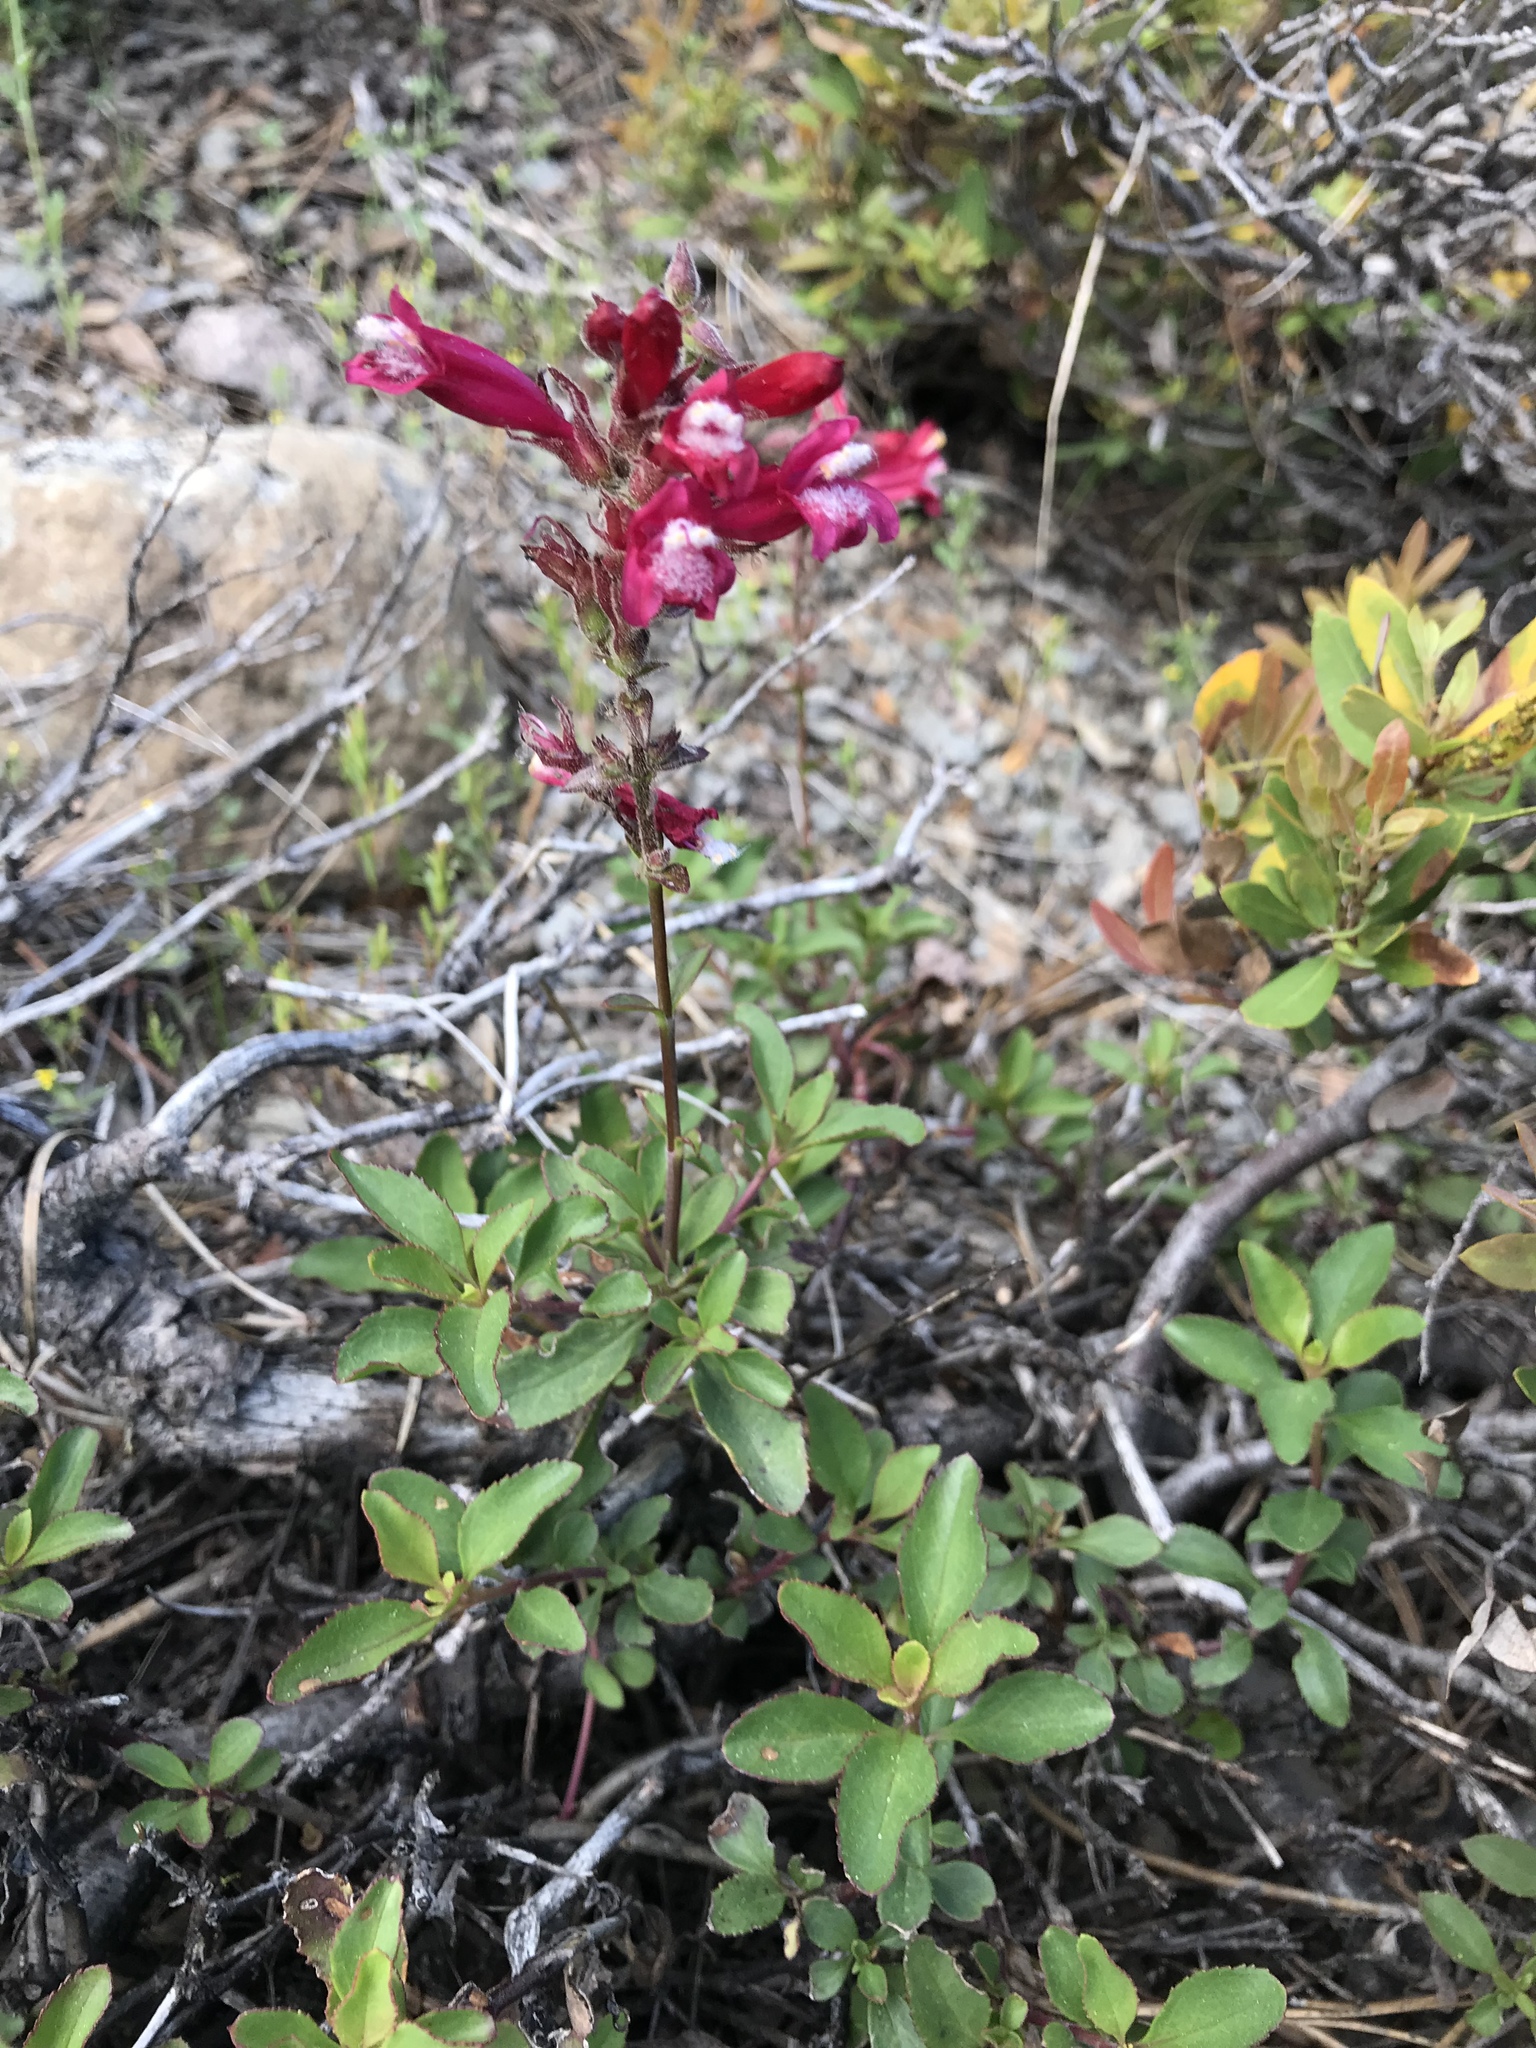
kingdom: Plantae
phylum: Tracheophyta
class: Magnoliopsida
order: Lamiales
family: Plantaginaceae
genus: Penstemon
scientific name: Penstemon newberryi
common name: Mountain-pride
